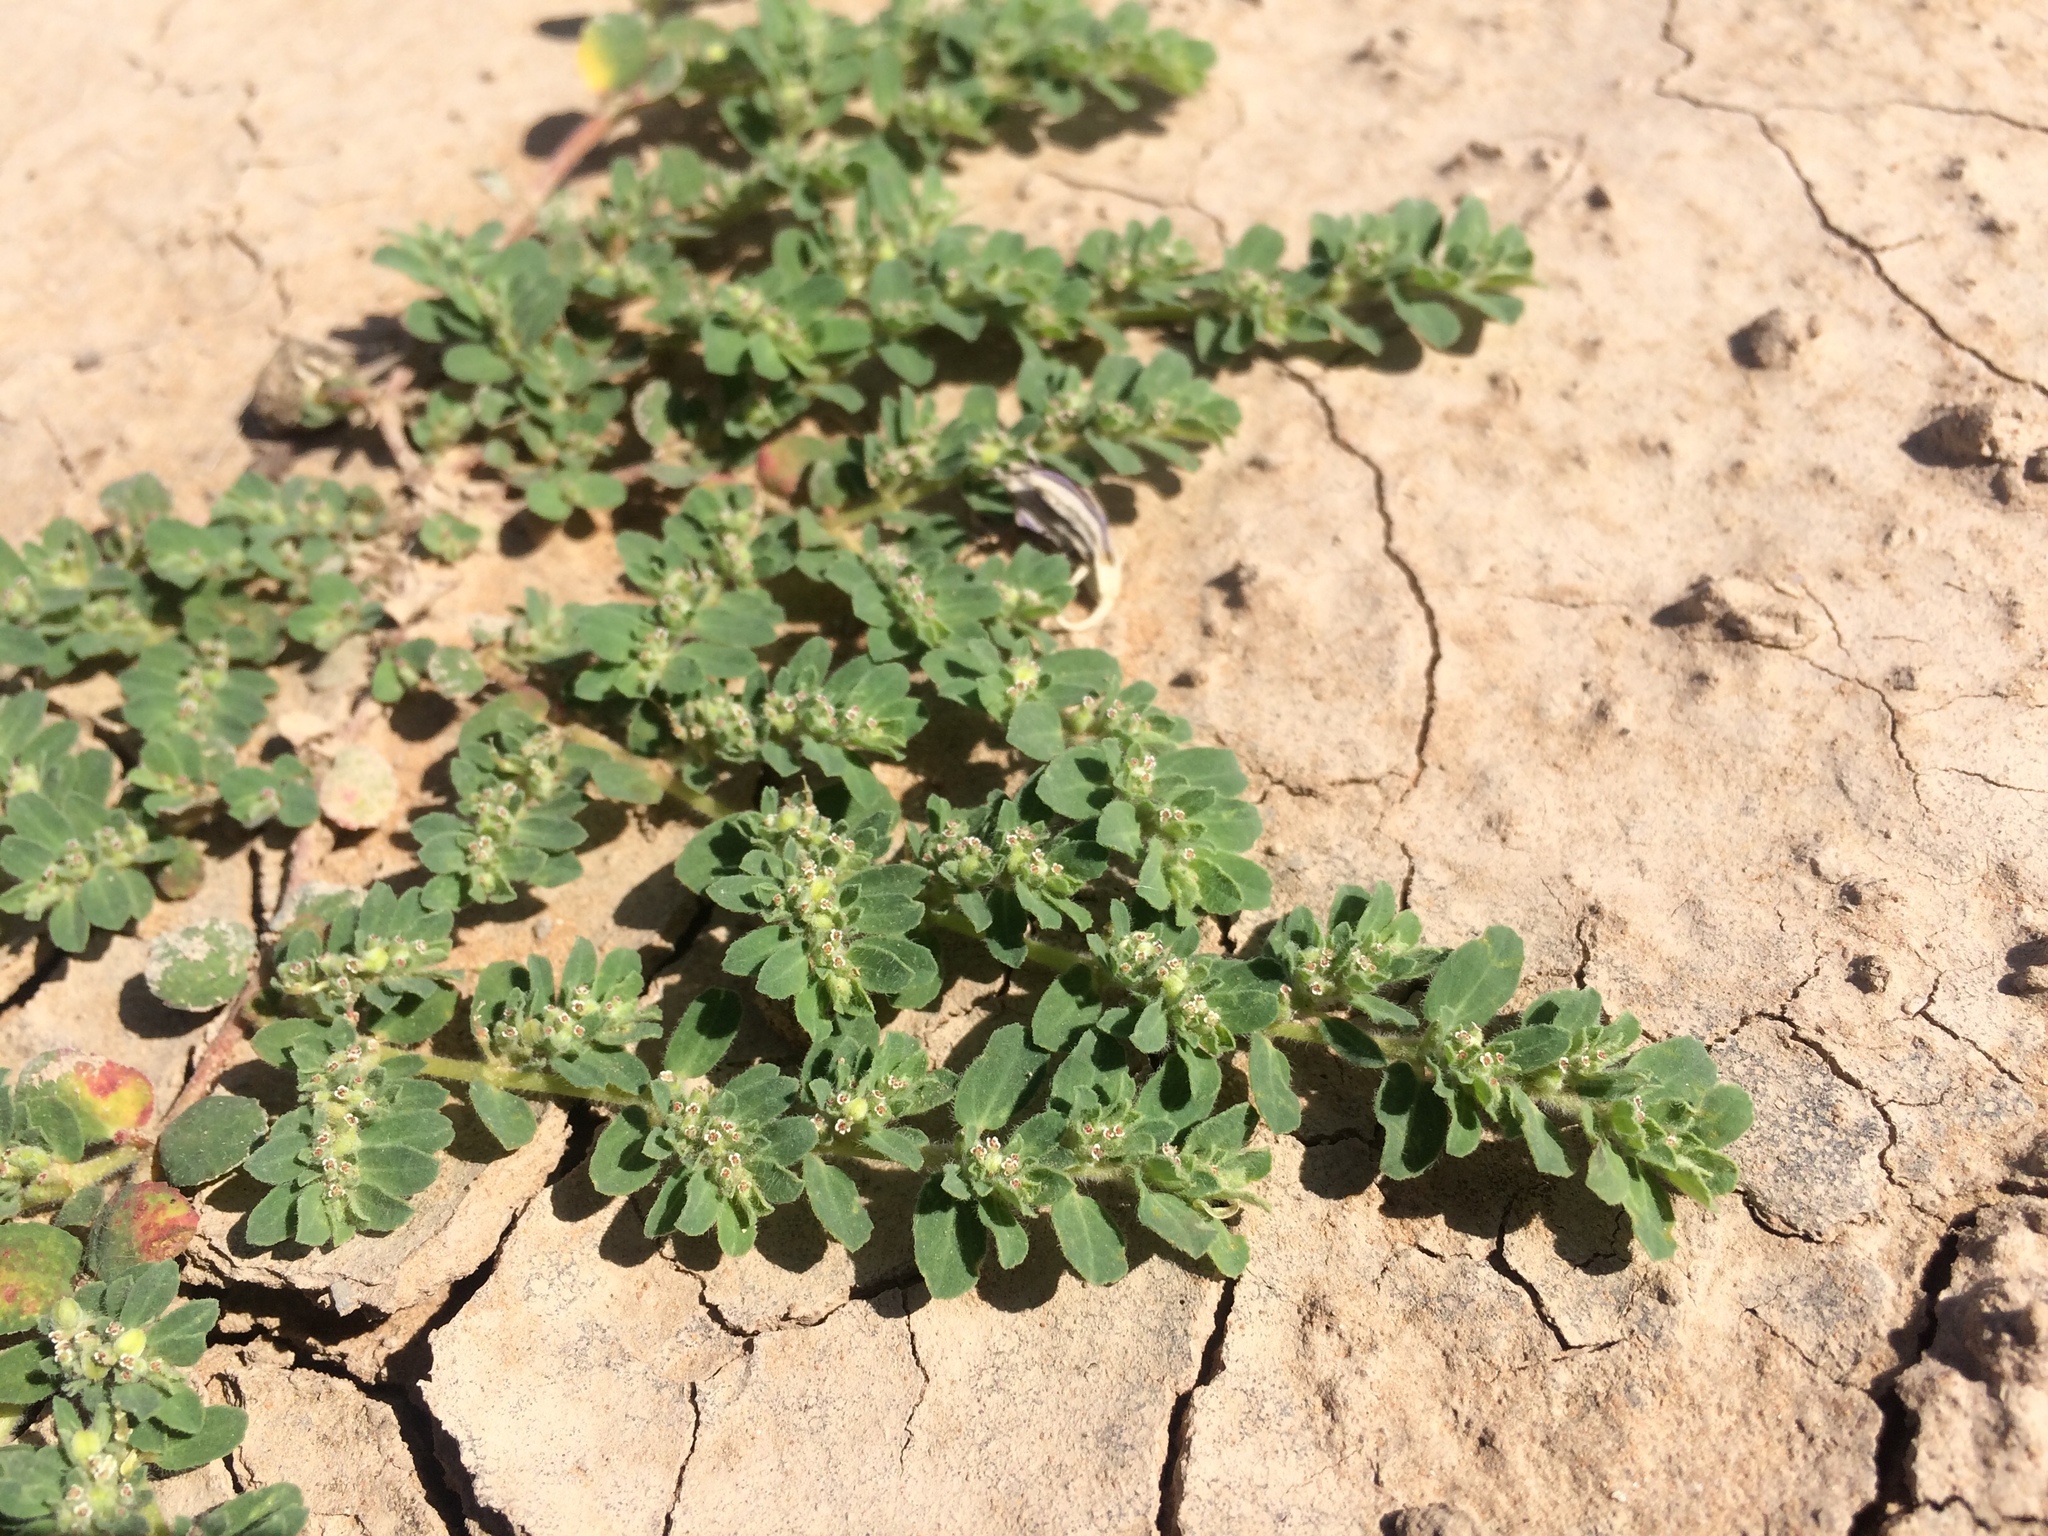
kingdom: Plantae
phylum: Tracheophyta
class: Magnoliopsida
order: Malpighiales
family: Euphorbiaceae
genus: Euphorbia
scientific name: Euphorbia stictospora
